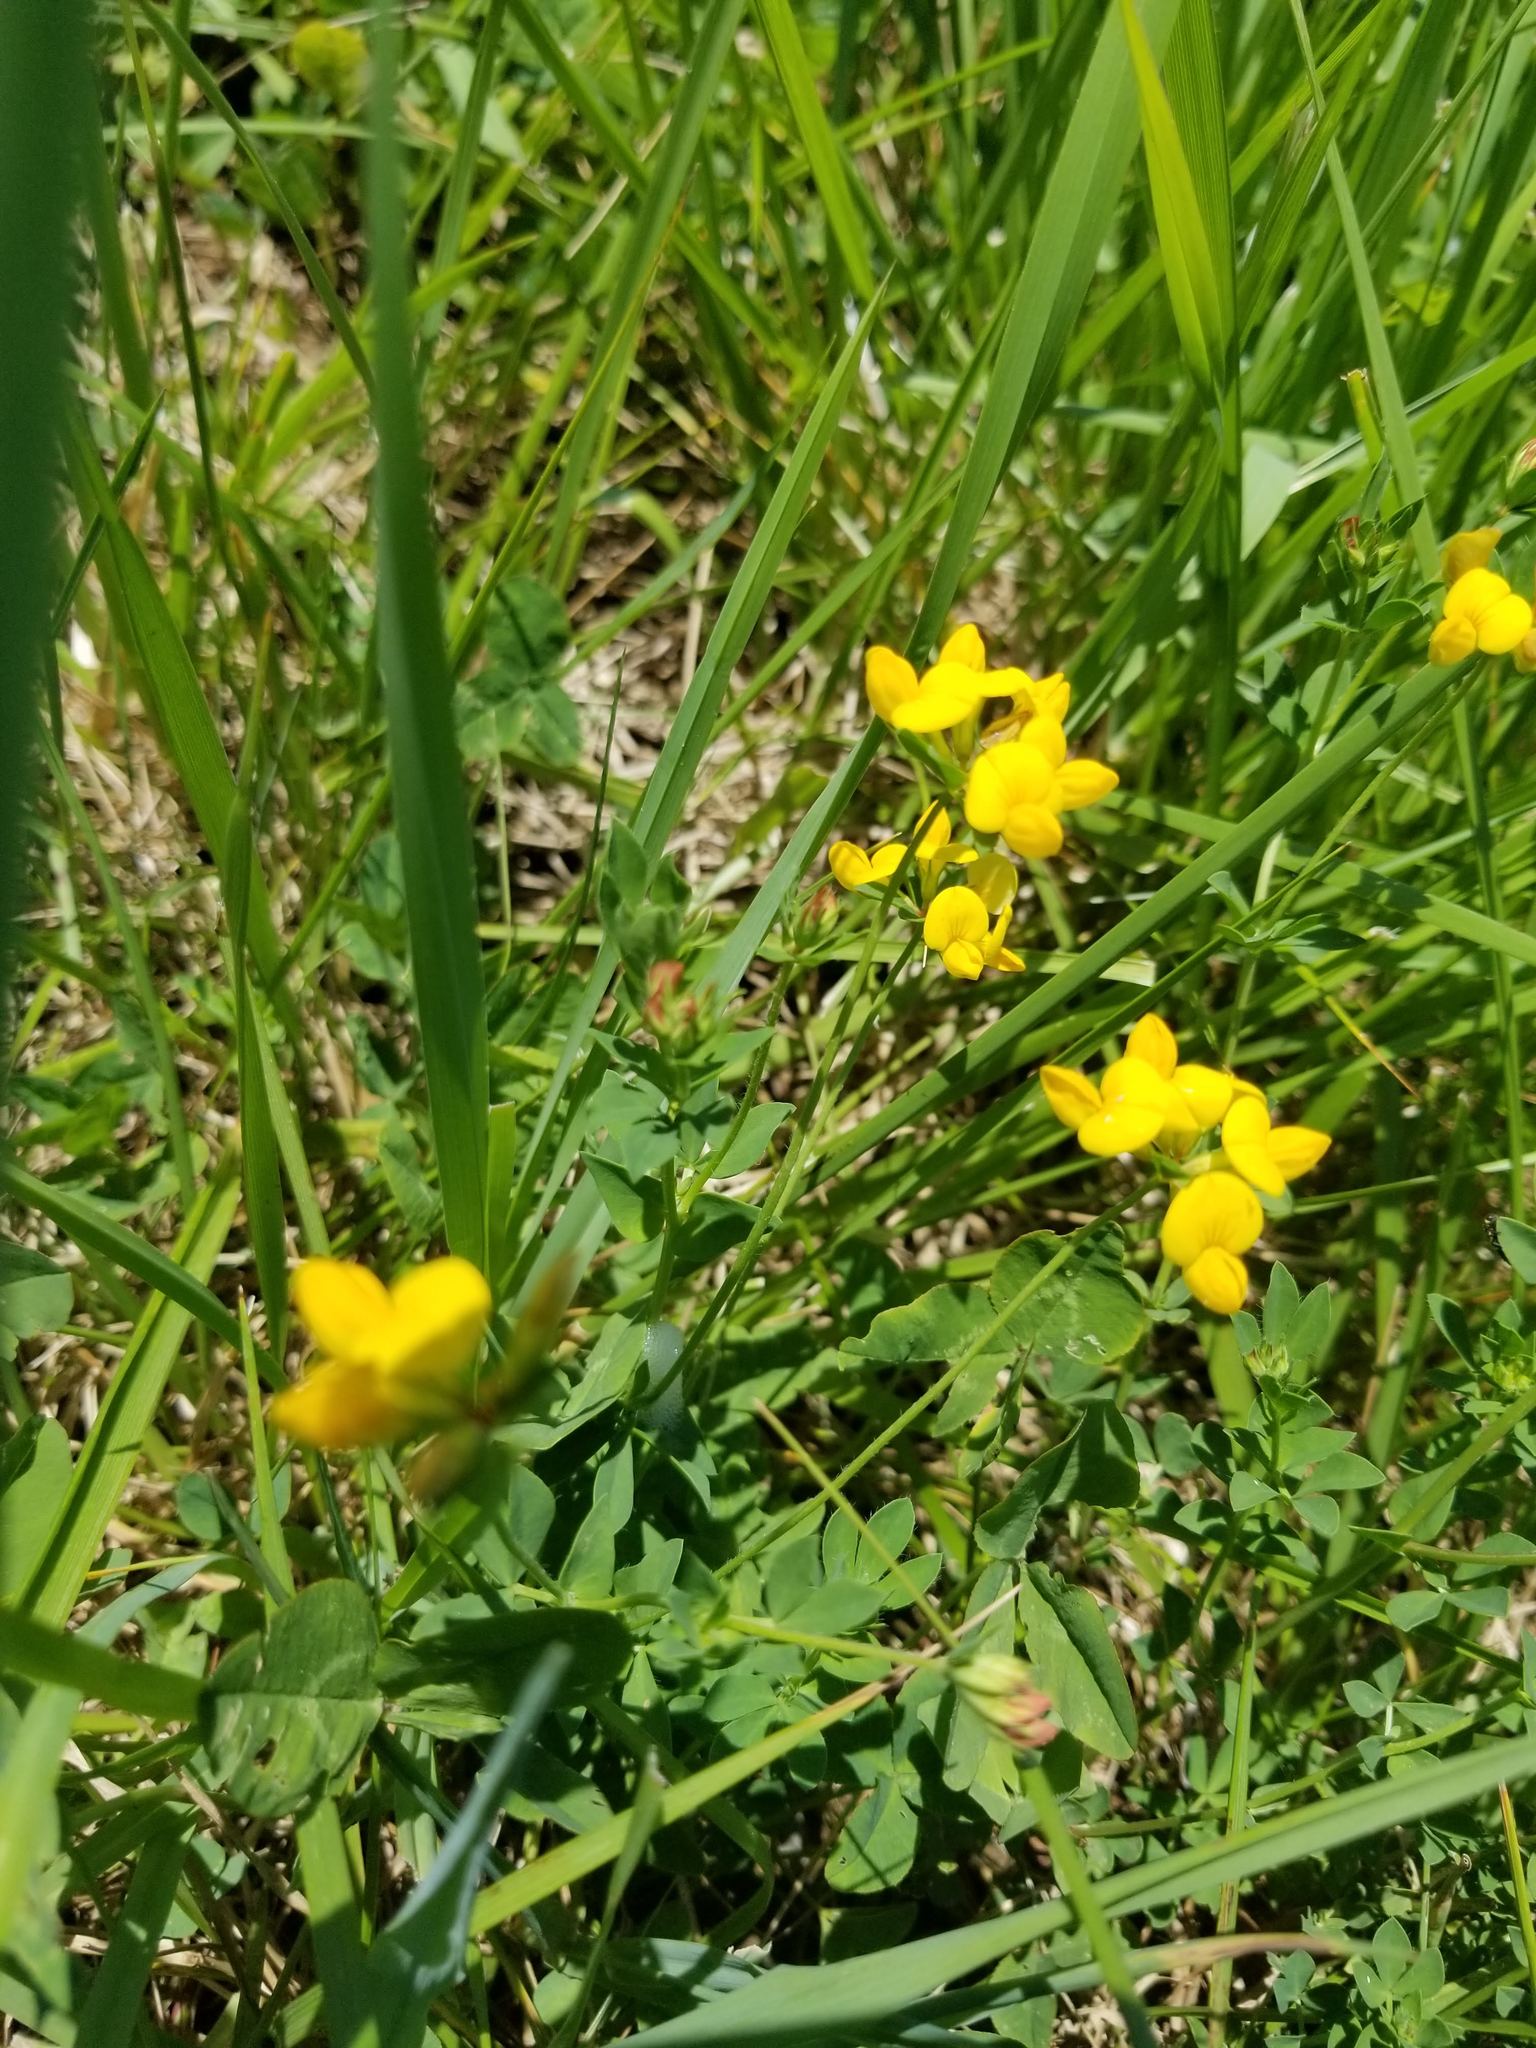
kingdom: Plantae
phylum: Tracheophyta
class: Magnoliopsida
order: Fabales
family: Fabaceae
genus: Lotus
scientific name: Lotus corniculatus
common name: Common bird's-foot-trefoil
